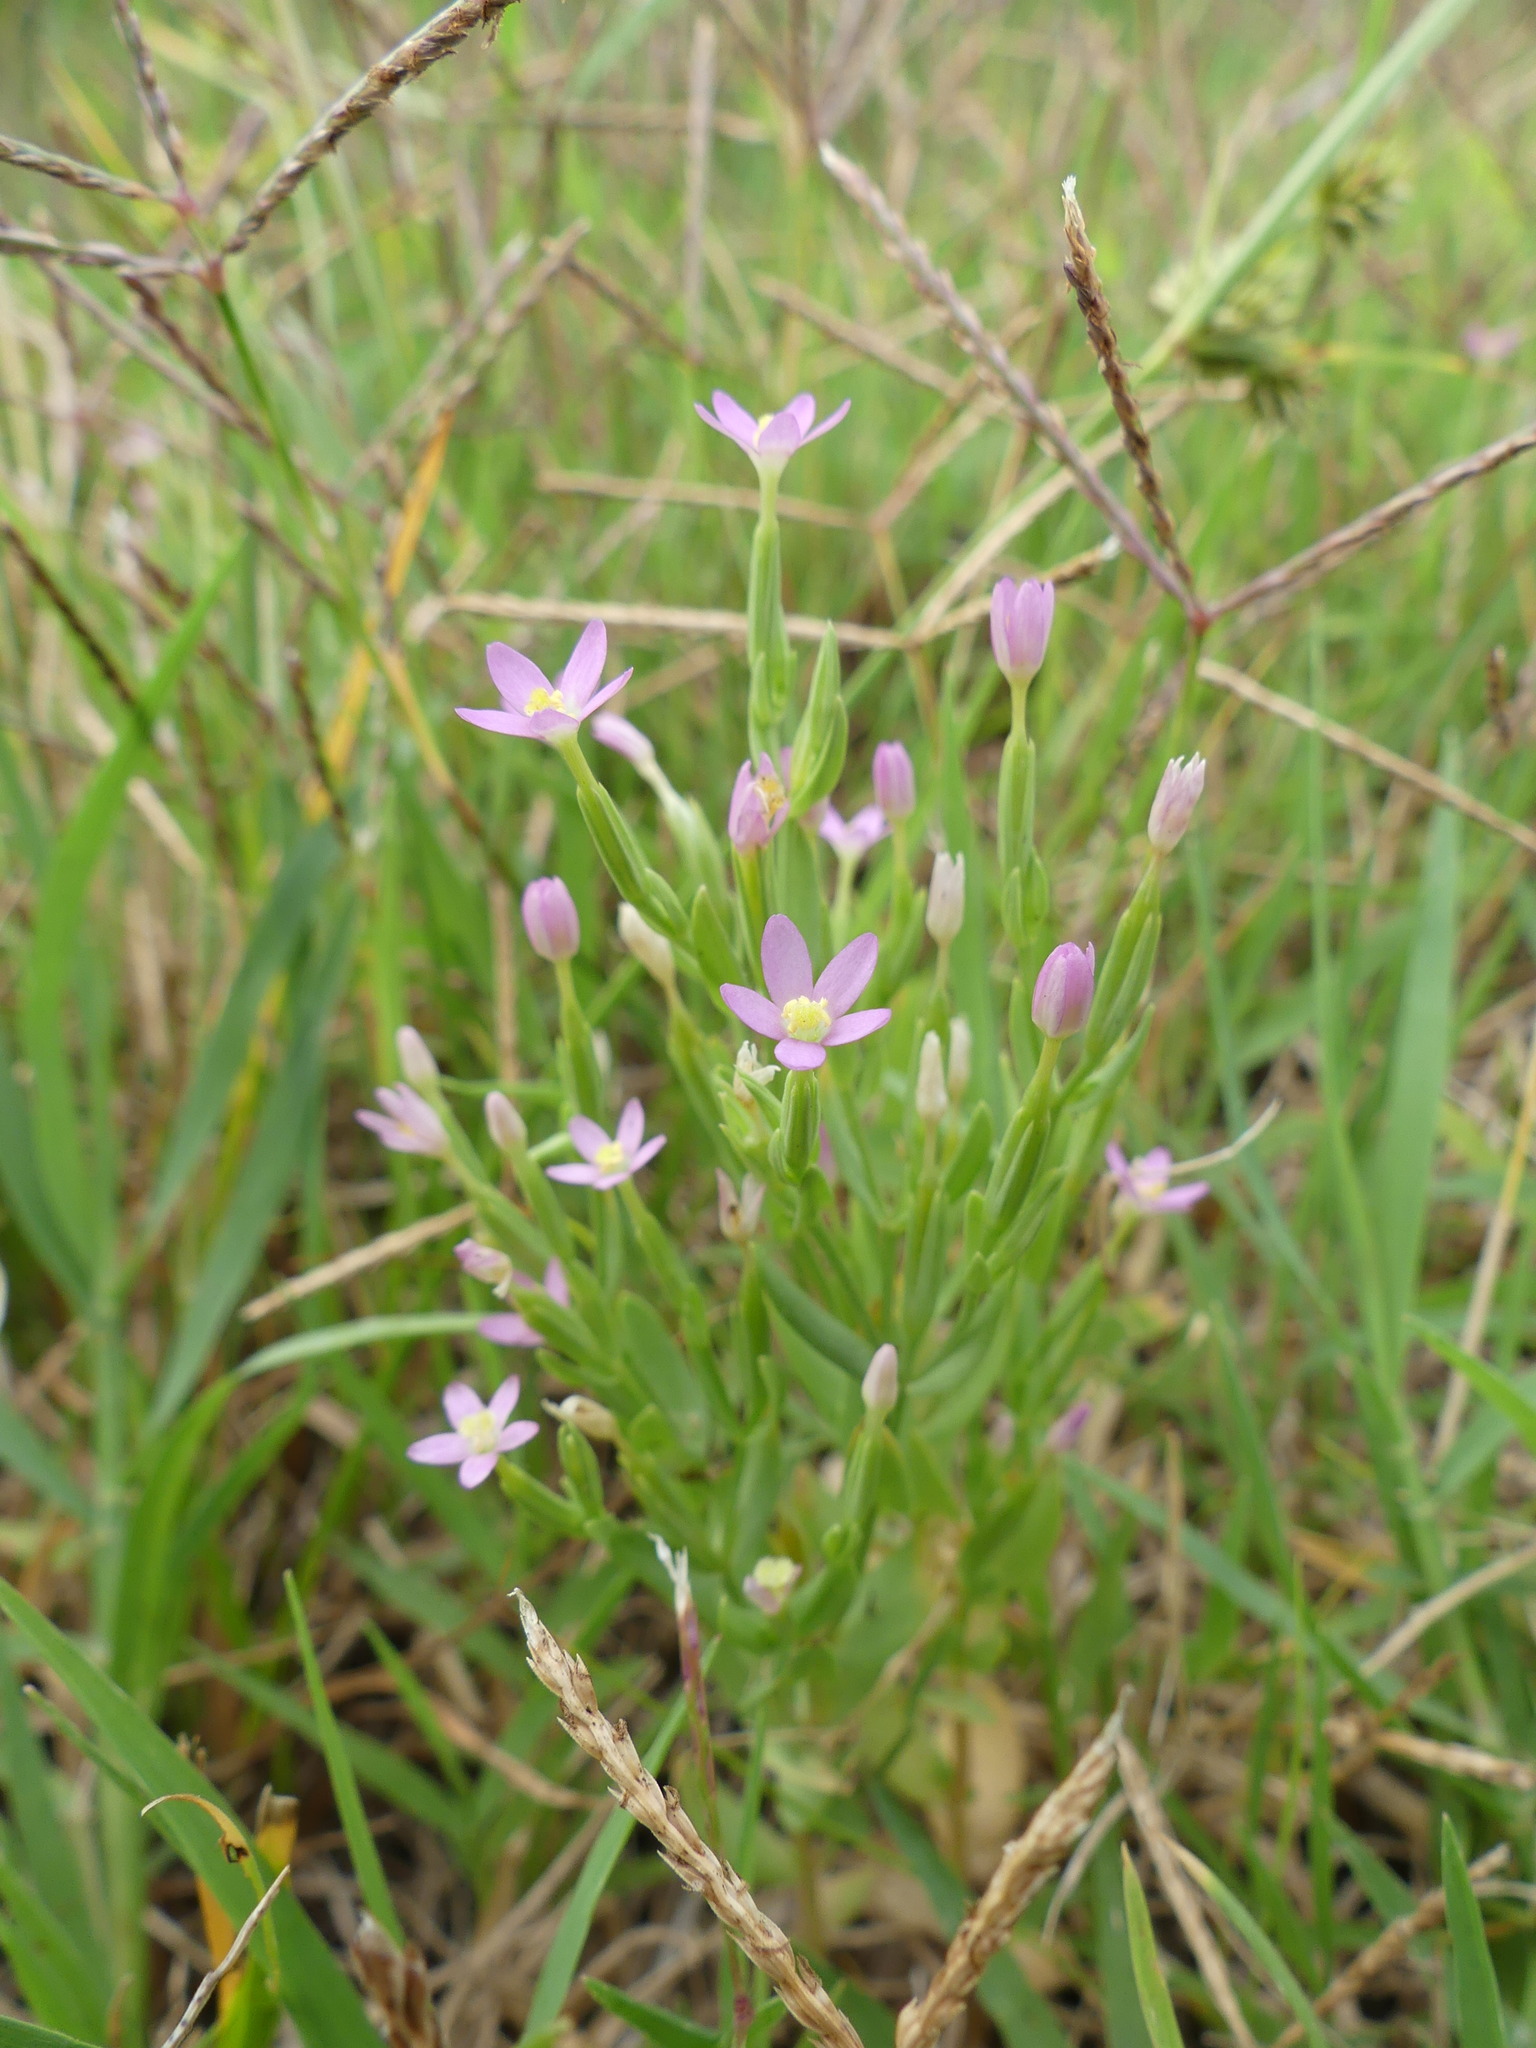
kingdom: Plantae
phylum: Tracheophyta
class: Magnoliopsida
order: Gentianales
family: Gentianaceae
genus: Centaurium
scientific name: Centaurium pulchellum
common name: Lesser centaury
